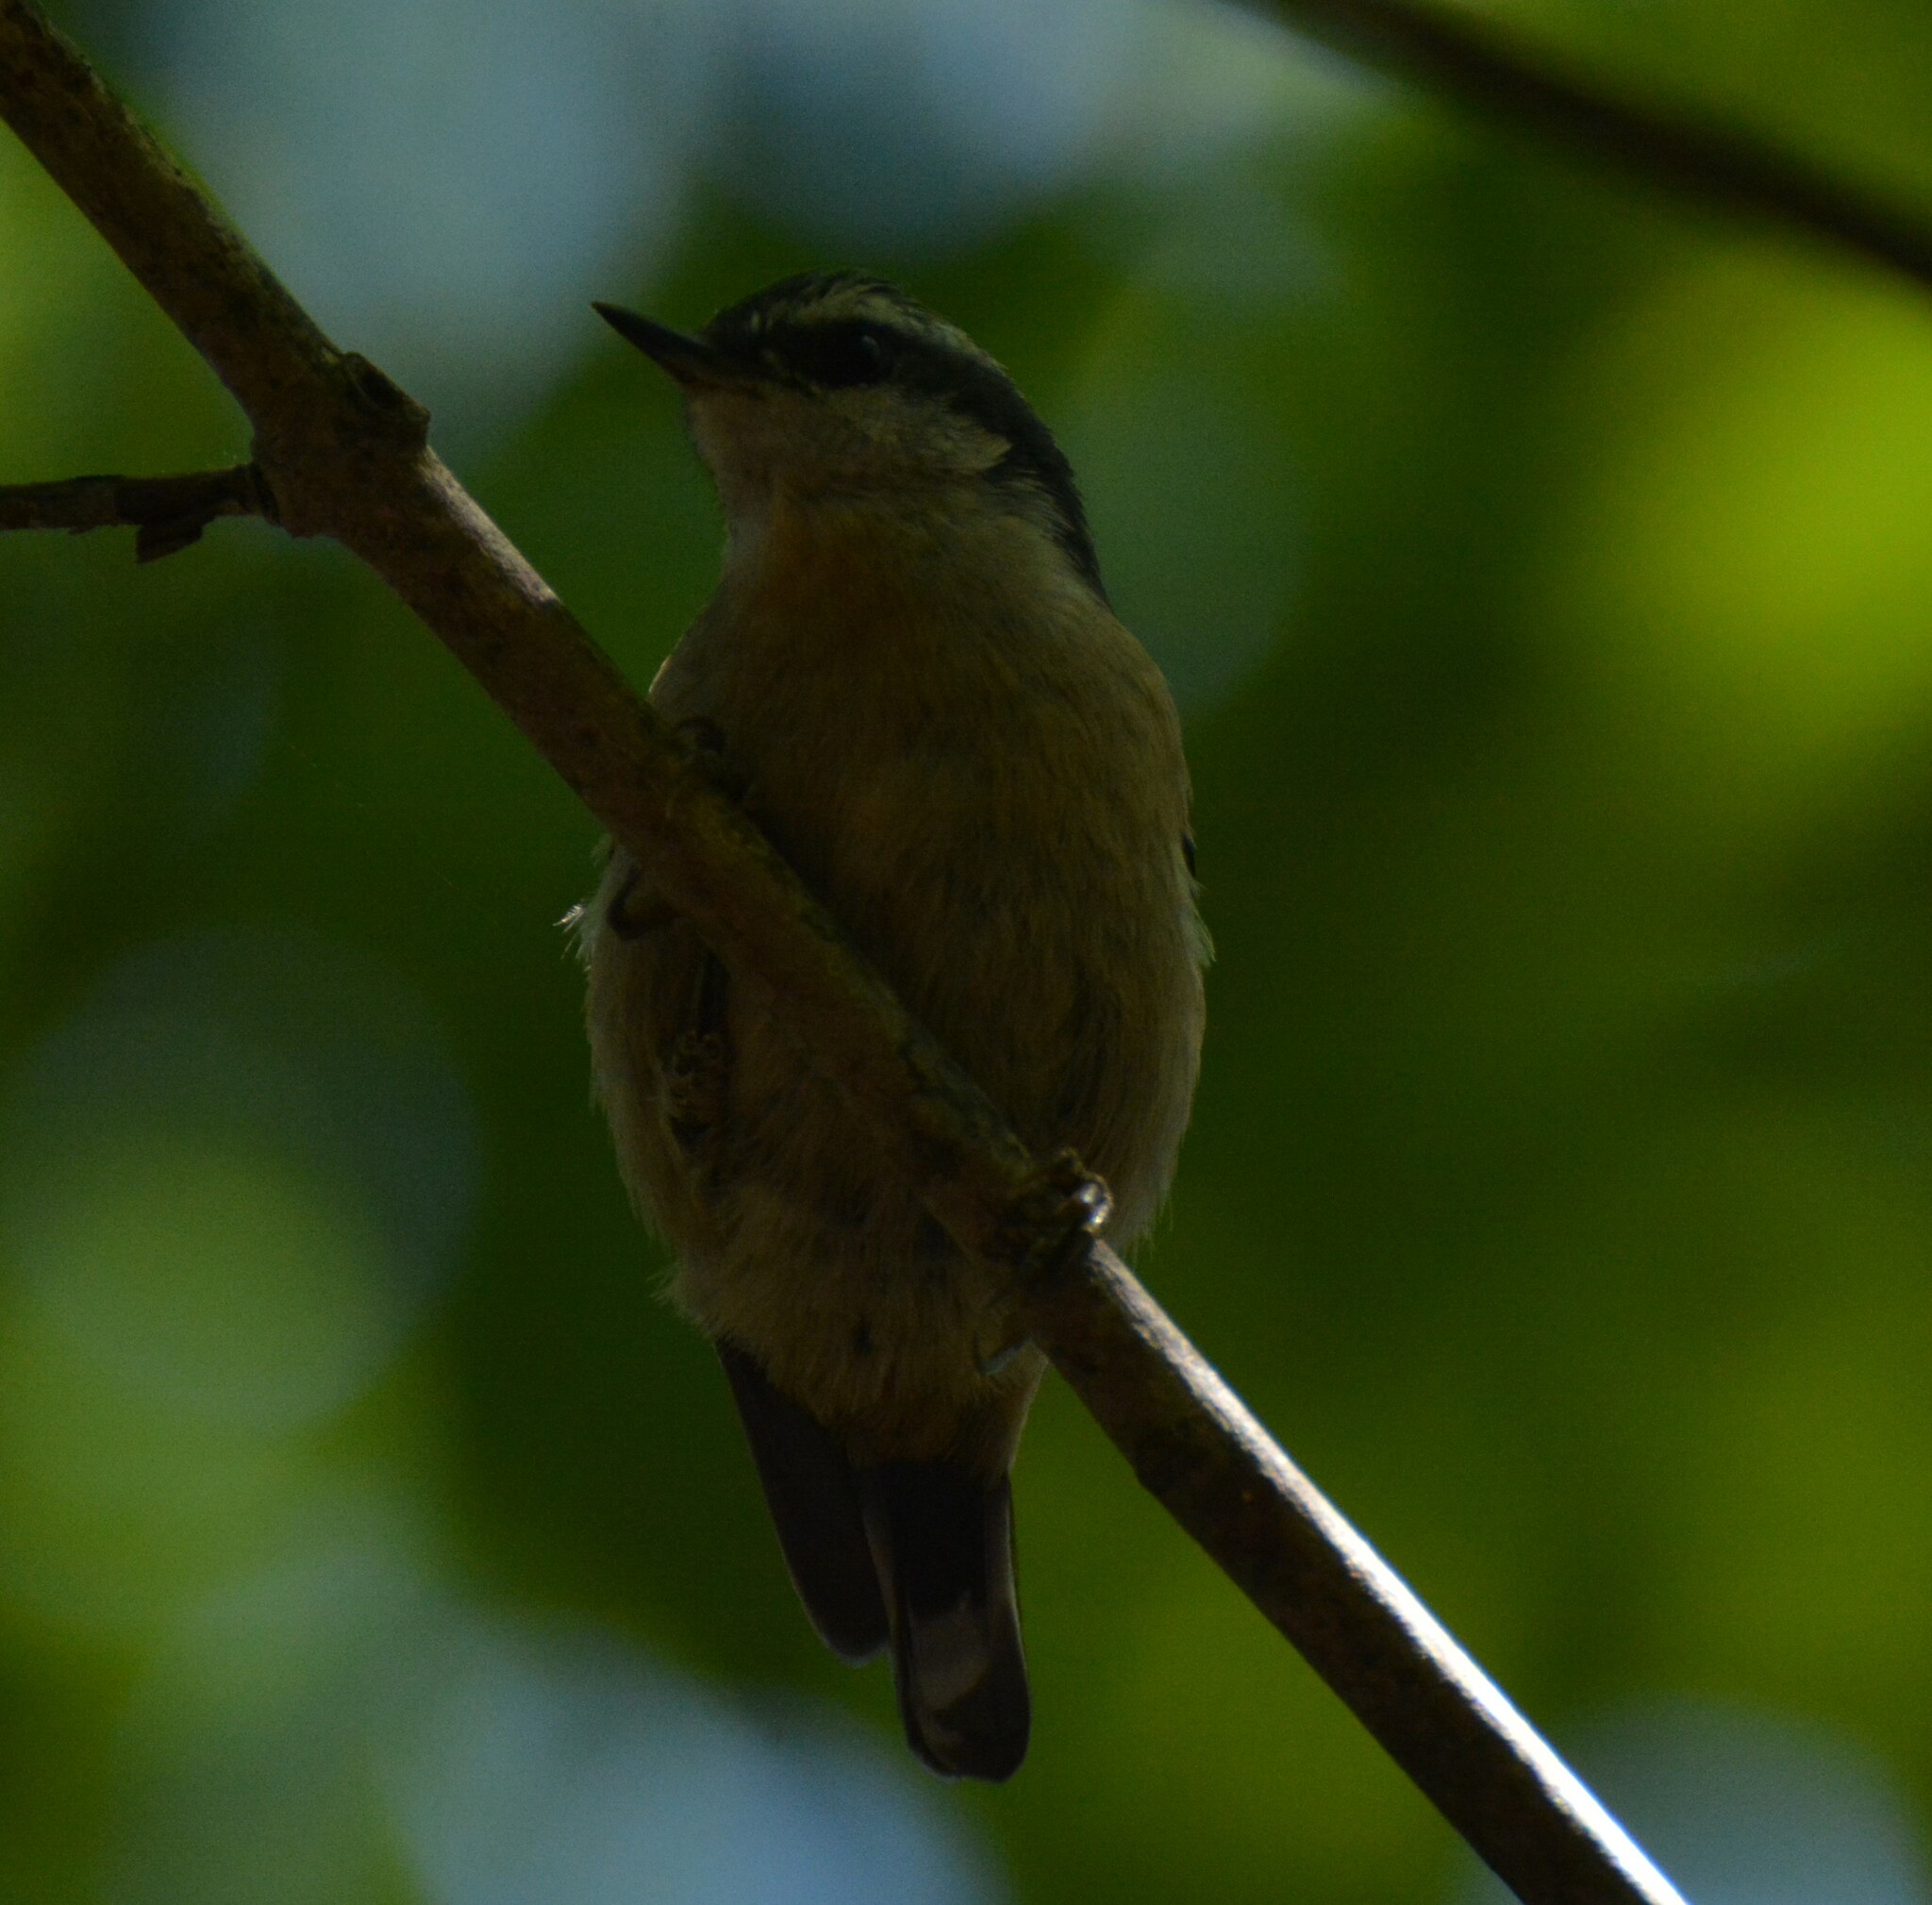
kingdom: Animalia
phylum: Chordata
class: Aves
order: Passeriformes
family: Sittidae
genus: Sitta
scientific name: Sitta canadensis
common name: Red-breasted nuthatch
